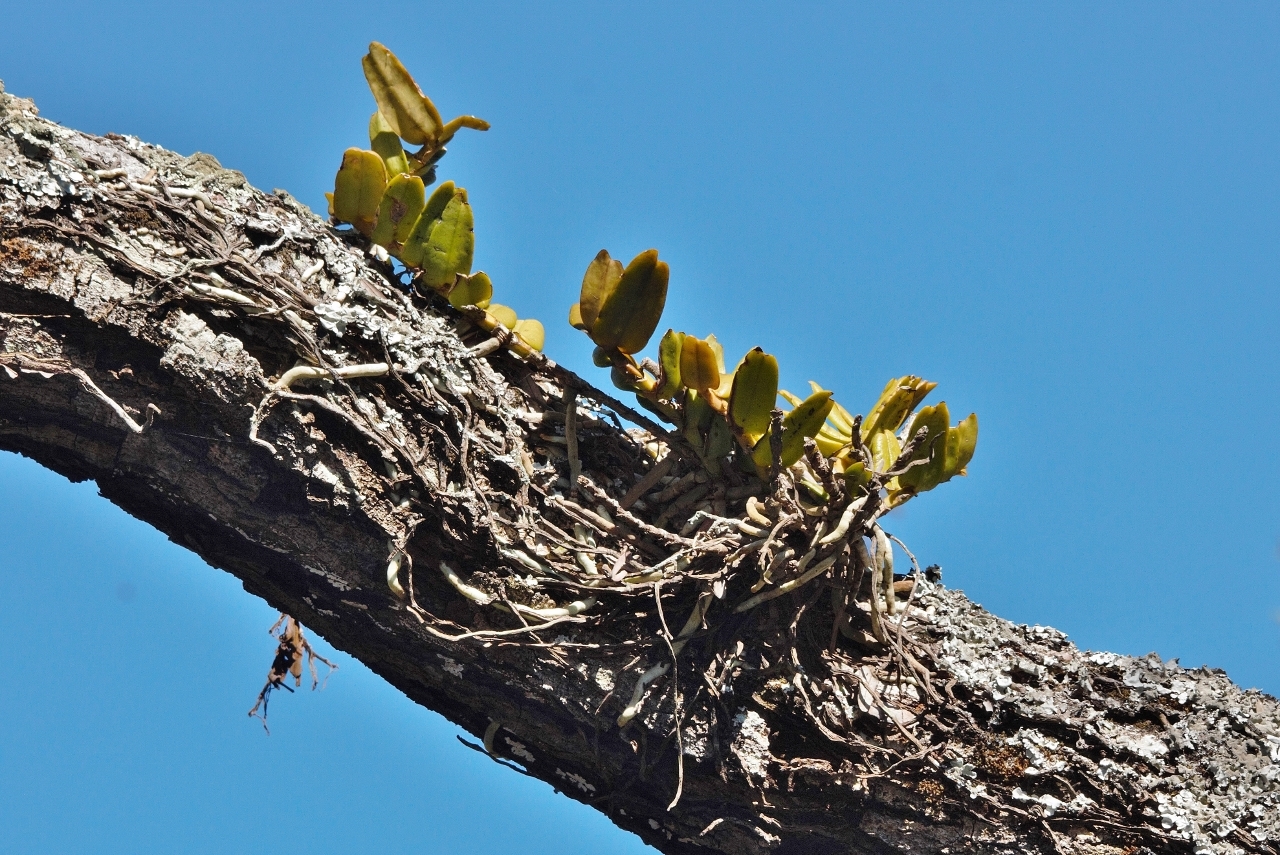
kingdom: Plantae
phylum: Tracheophyta
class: Liliopsida
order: Asparagales
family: Orchidaceae
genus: Calyptrochilum
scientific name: Calyptrochilum christyanum
